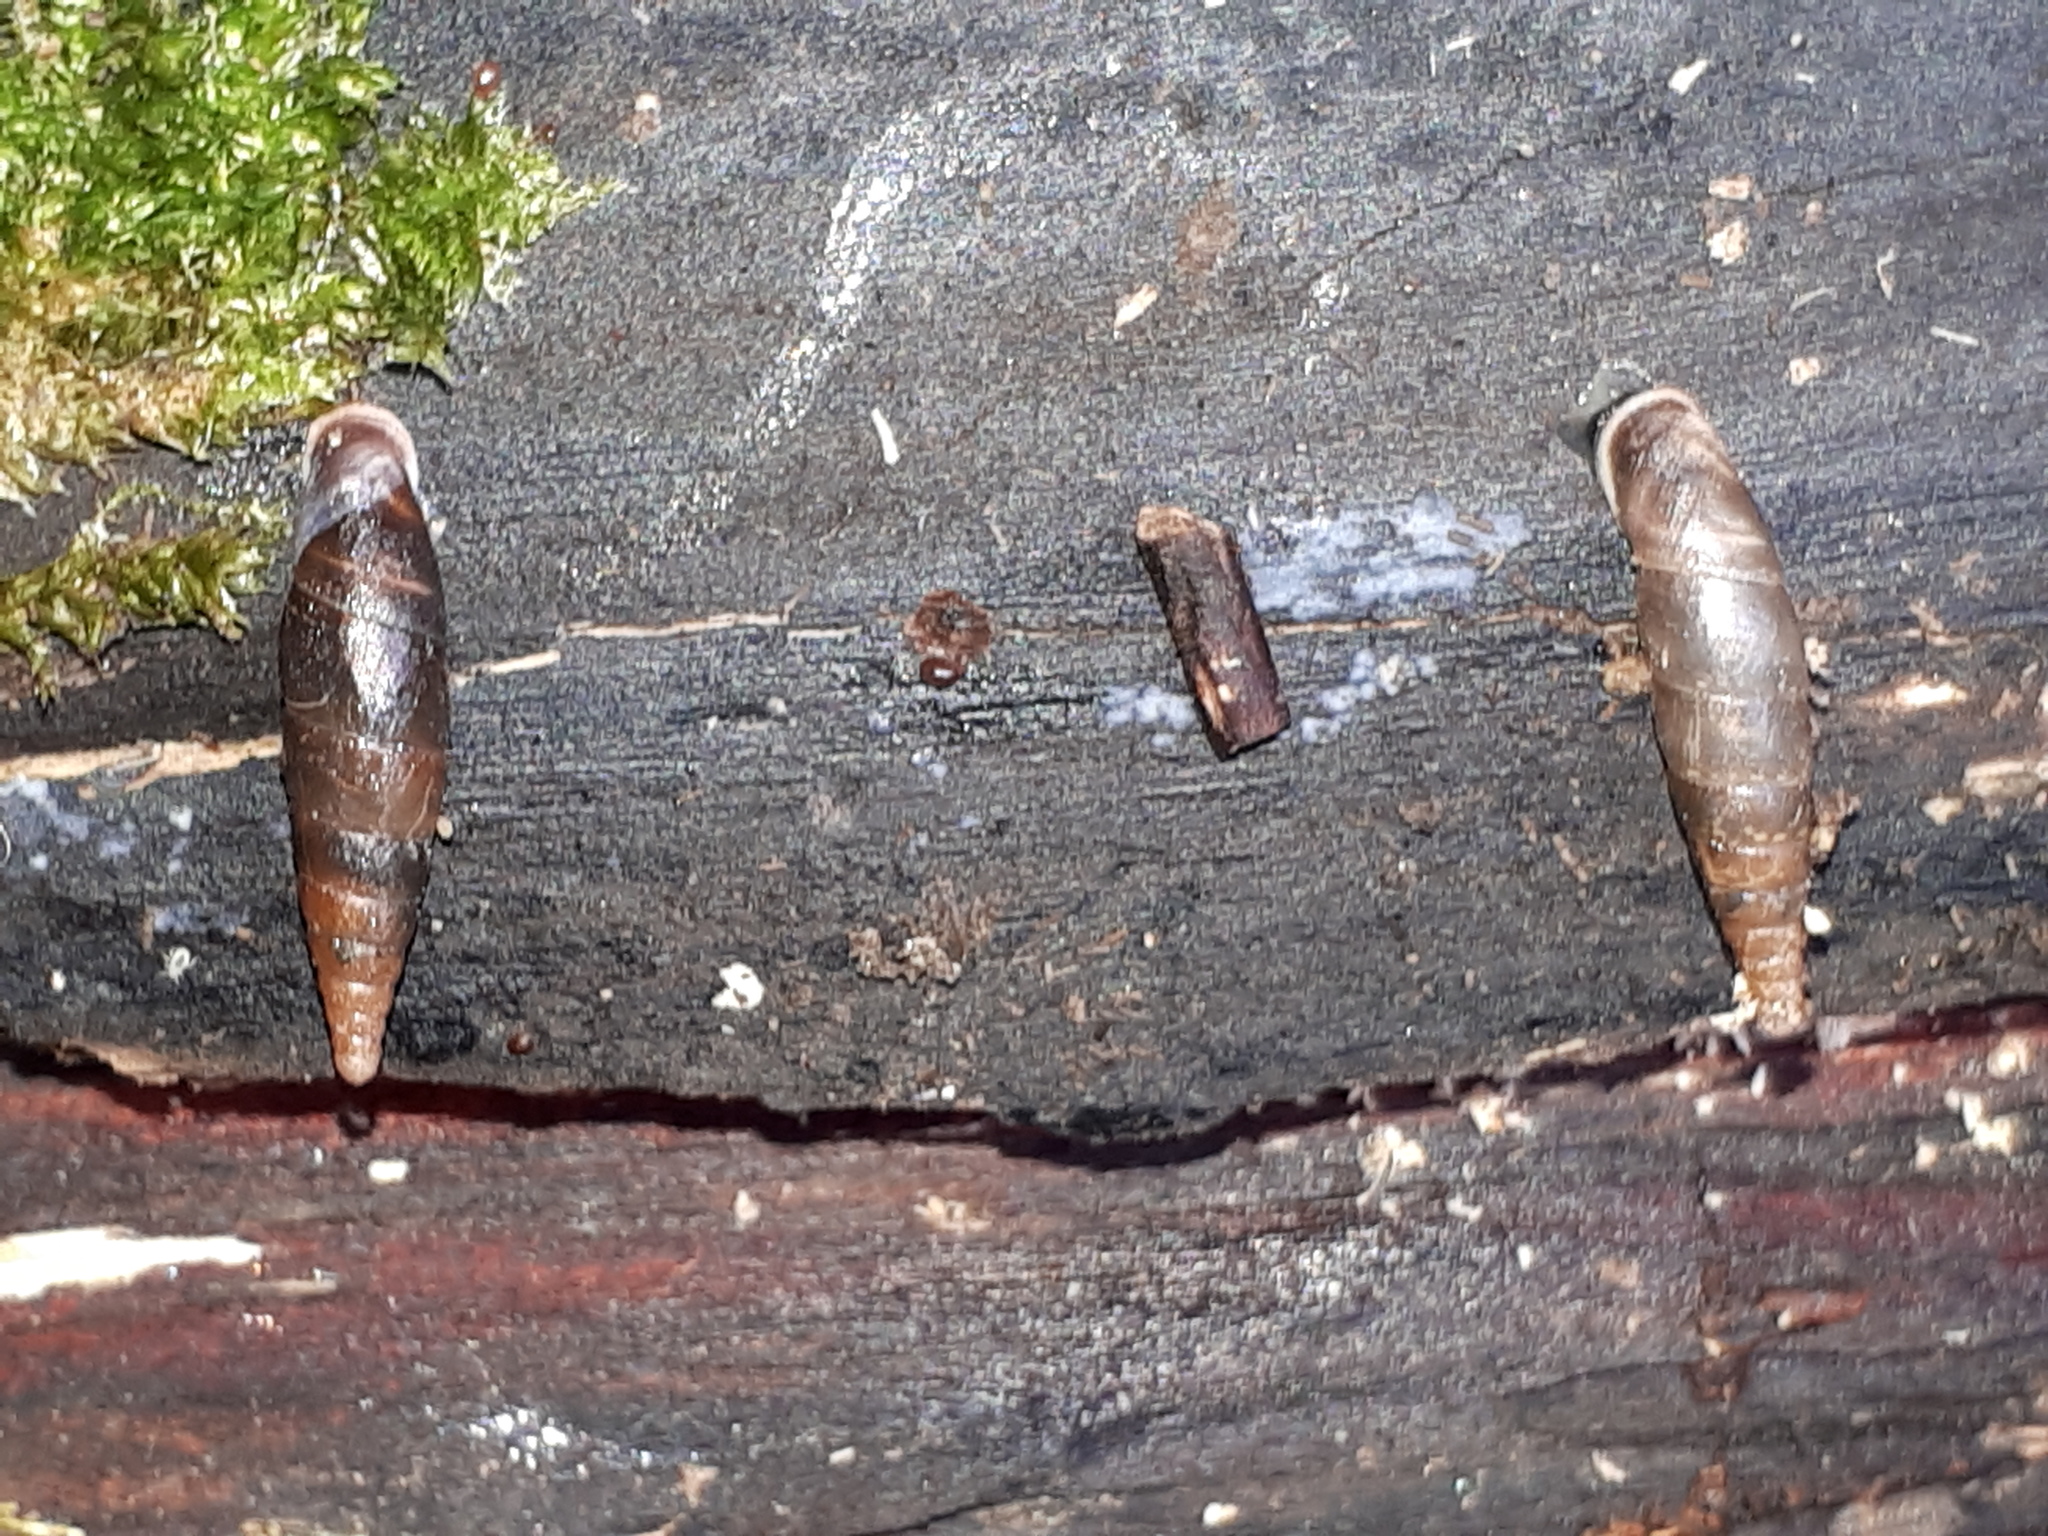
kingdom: Animalia
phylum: Mollusca
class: Gastropoda
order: Stylommatophora
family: Clausiliidae
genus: Cochlodina
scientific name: Cochlodina laminata
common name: Plaited door snail
